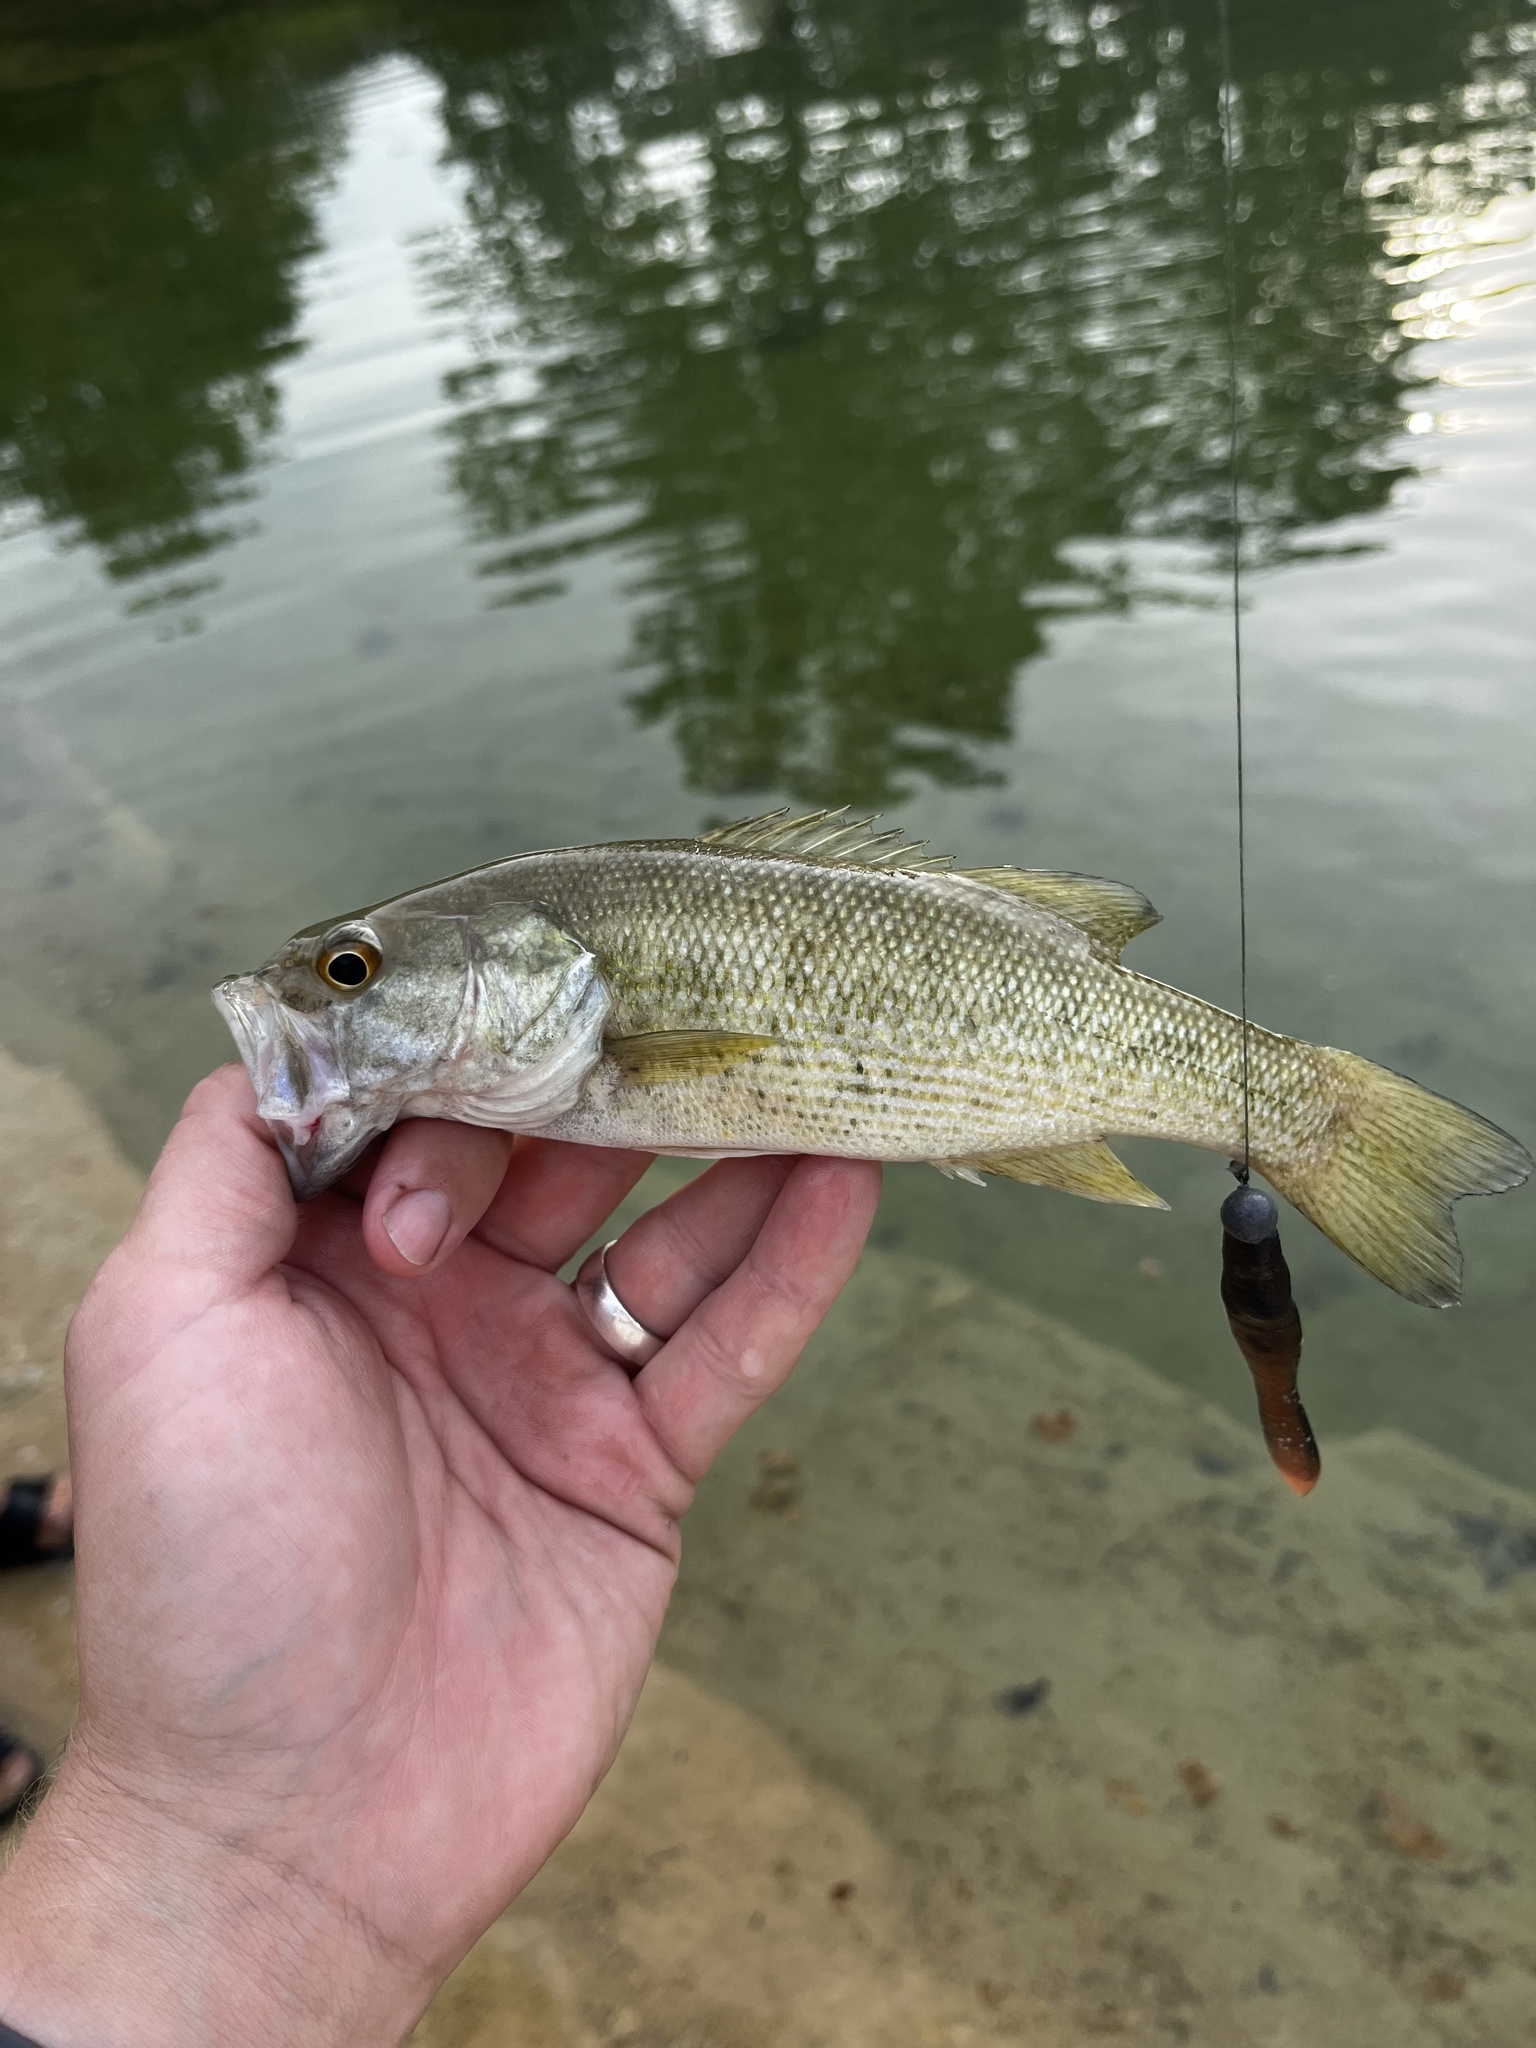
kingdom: Animalia
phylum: Chordata
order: Perciformes
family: Centrarchidae
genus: Micropterus
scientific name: Micropterus treculii
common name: Guadalupe bass
